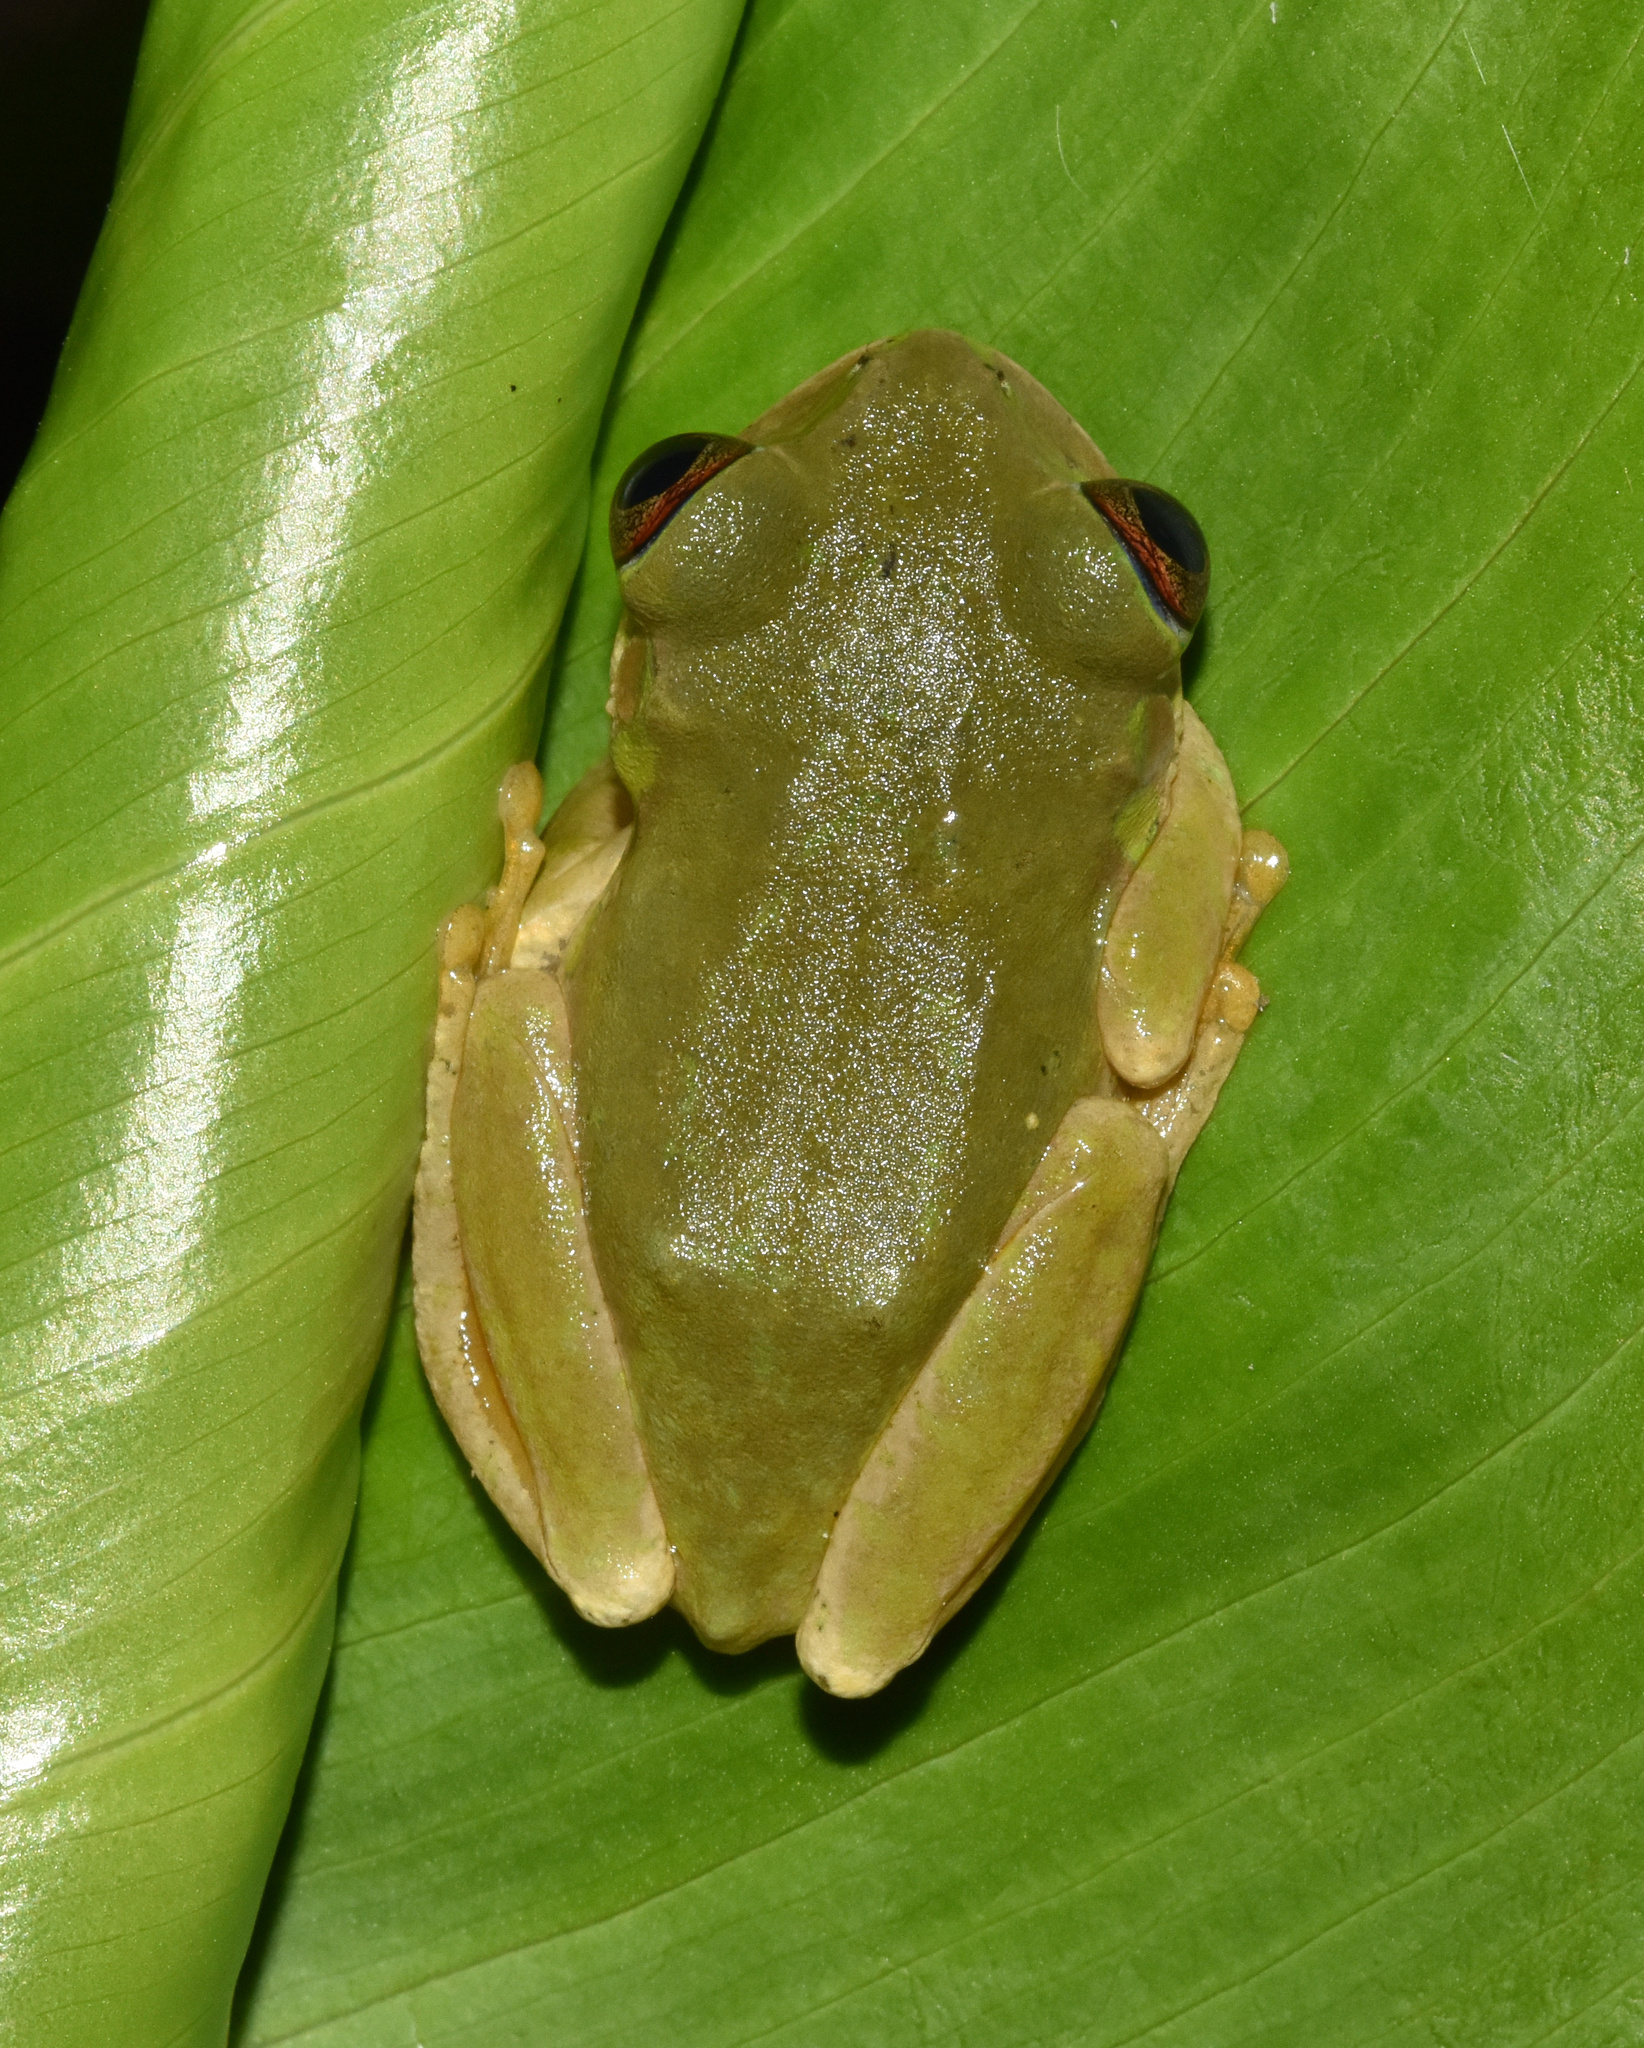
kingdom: Animalia
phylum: Chordata
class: Amphibia
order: Anura
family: Arthroleptidae
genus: Leptopelis
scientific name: Leptopelis natalensis
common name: Natal tree frog
